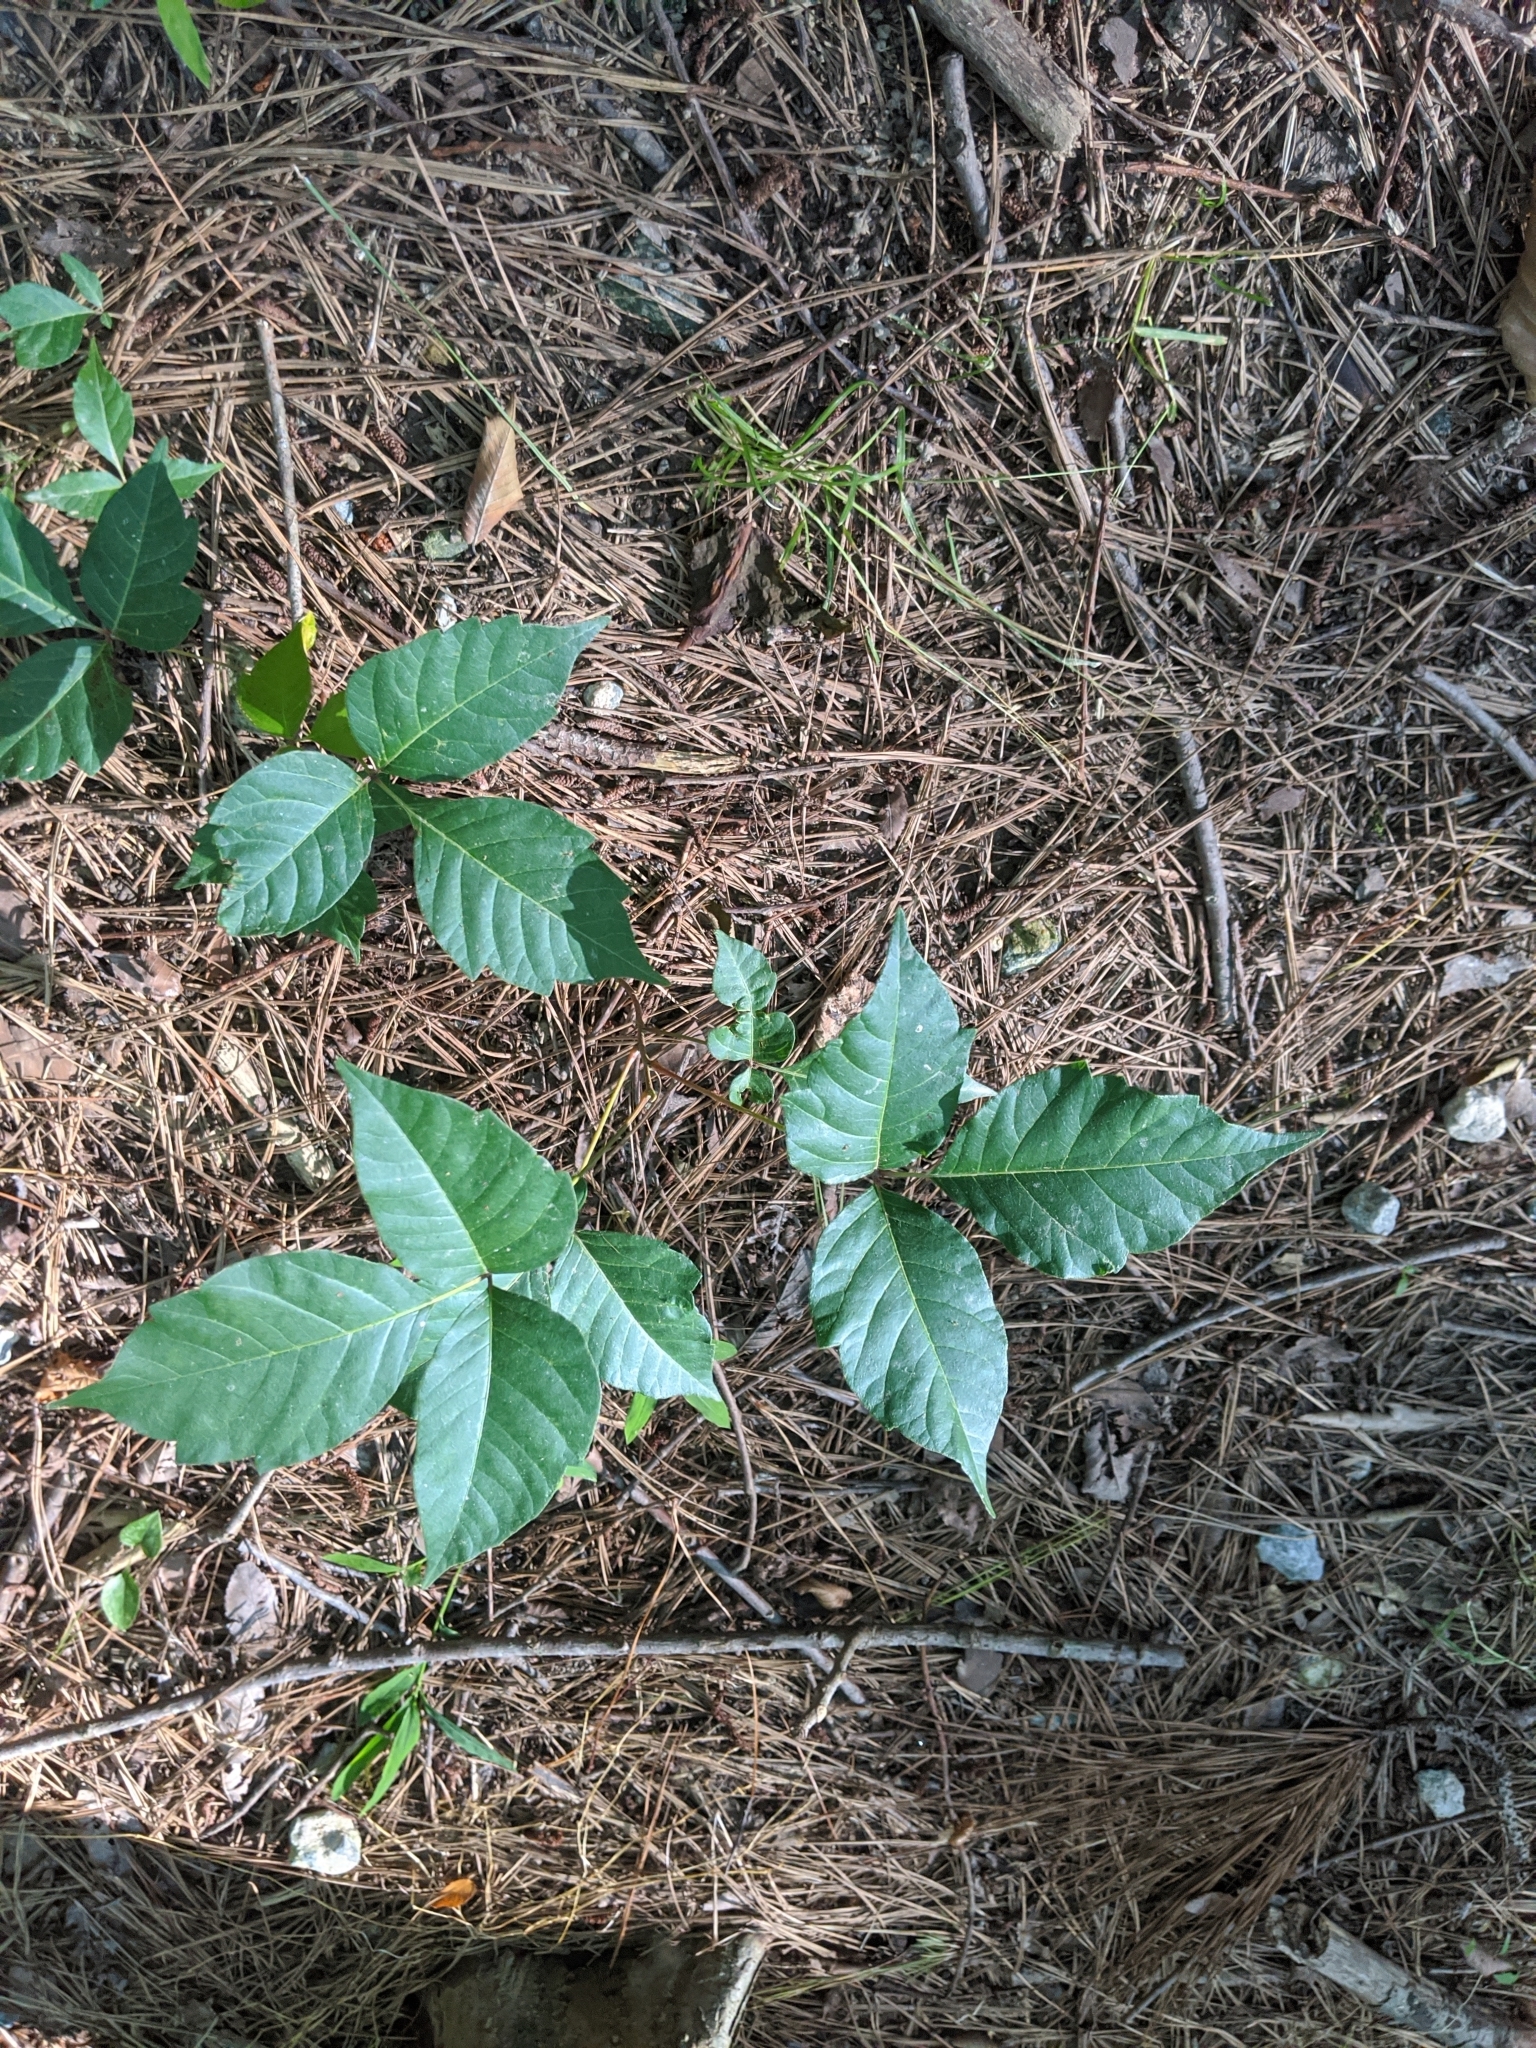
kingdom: Plantae
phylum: Tracheophyta
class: Magnoliopsida
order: Sapindales
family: Anacardiaceae
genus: Toxicodendron
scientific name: Toxicodendron radicans
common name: Poison ivy
